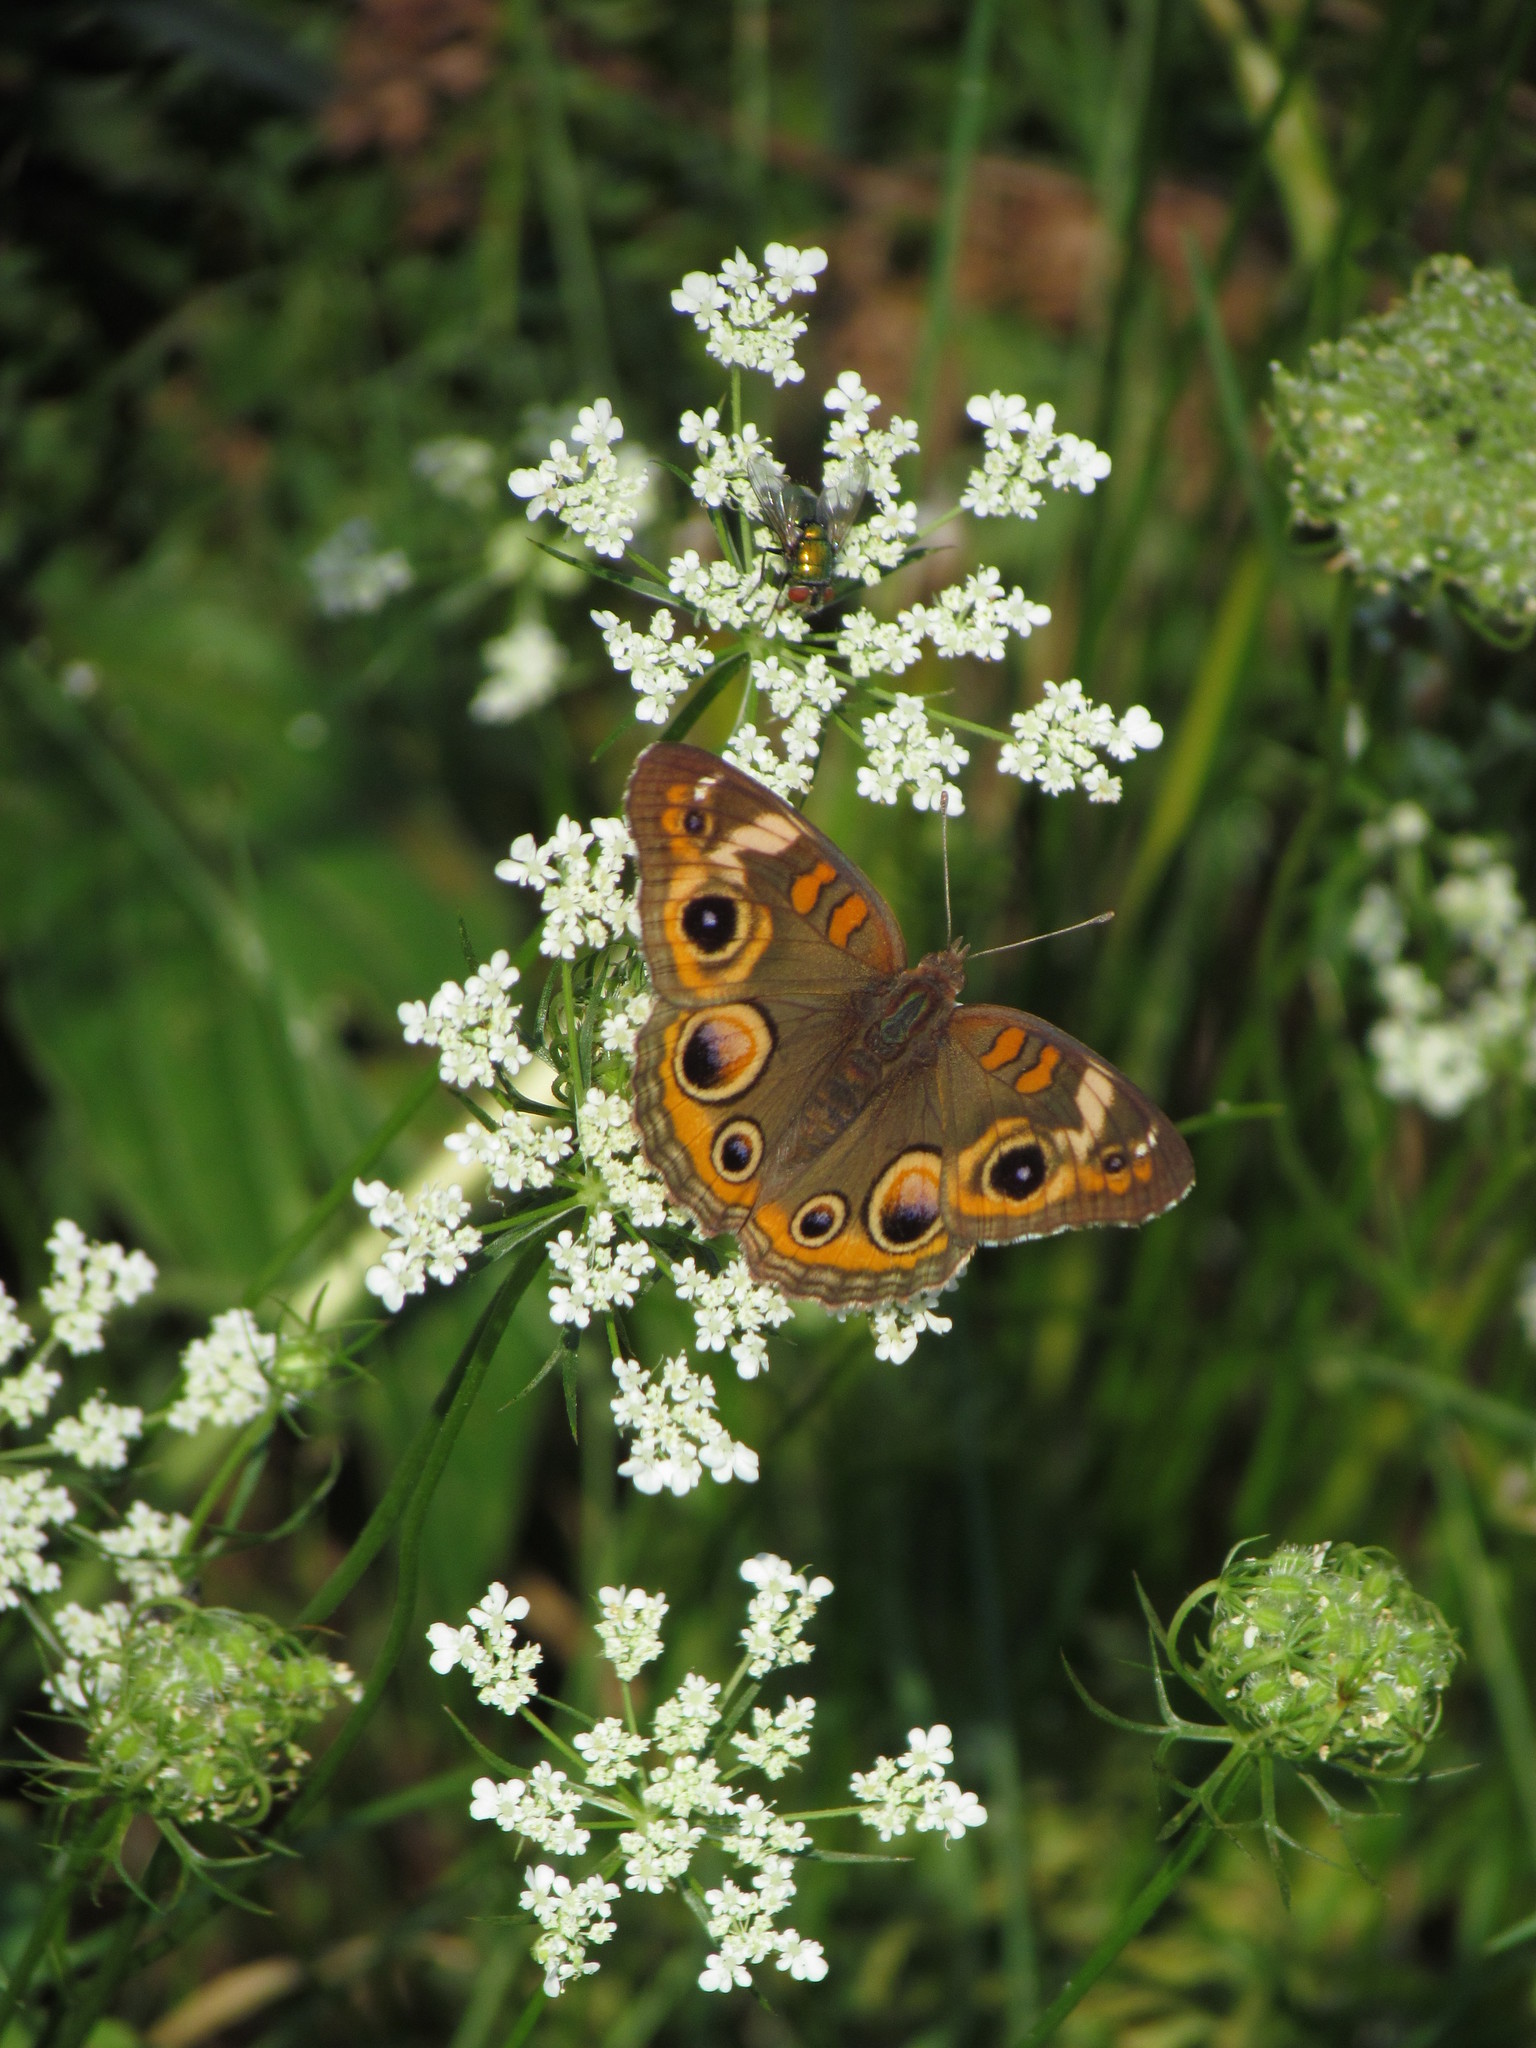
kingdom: Animalia
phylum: Arthropoda
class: Insecta
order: Lepidoptera
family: Nymphalidae
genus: Junonia
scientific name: Junonia coenia
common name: Common buckeye
